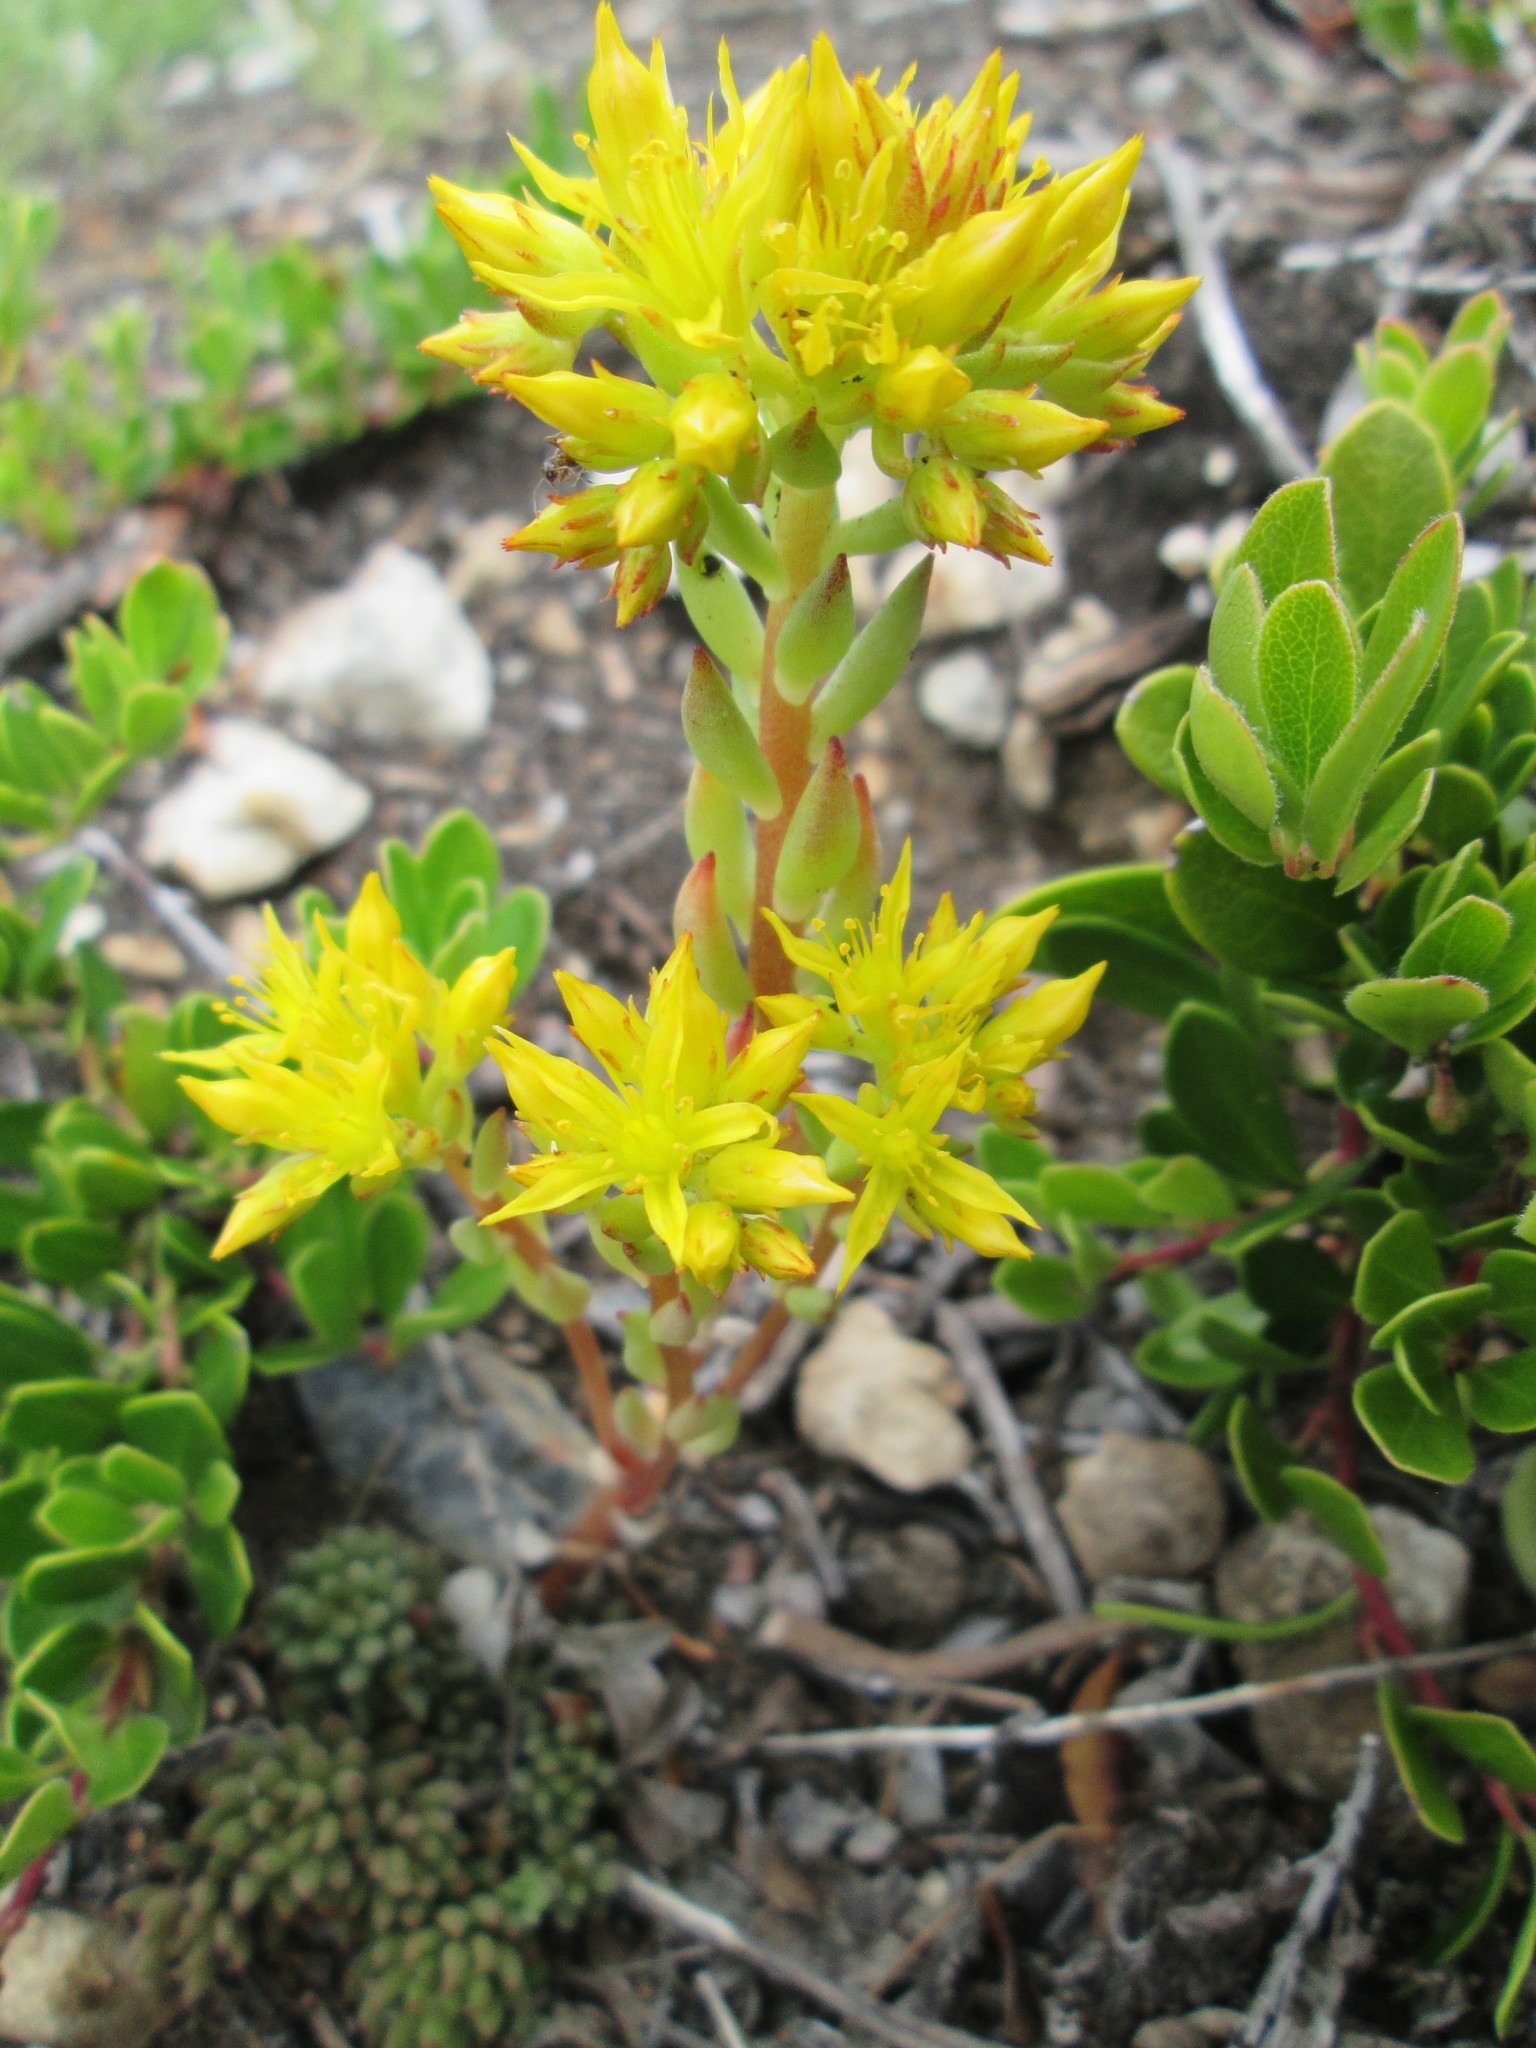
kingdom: Plantae
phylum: Tracheophyta
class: Magnoliopsida
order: Saxifragales
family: Crassulaceae
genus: Sedum
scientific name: Sedum lanceolatum
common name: Common stonecrop
